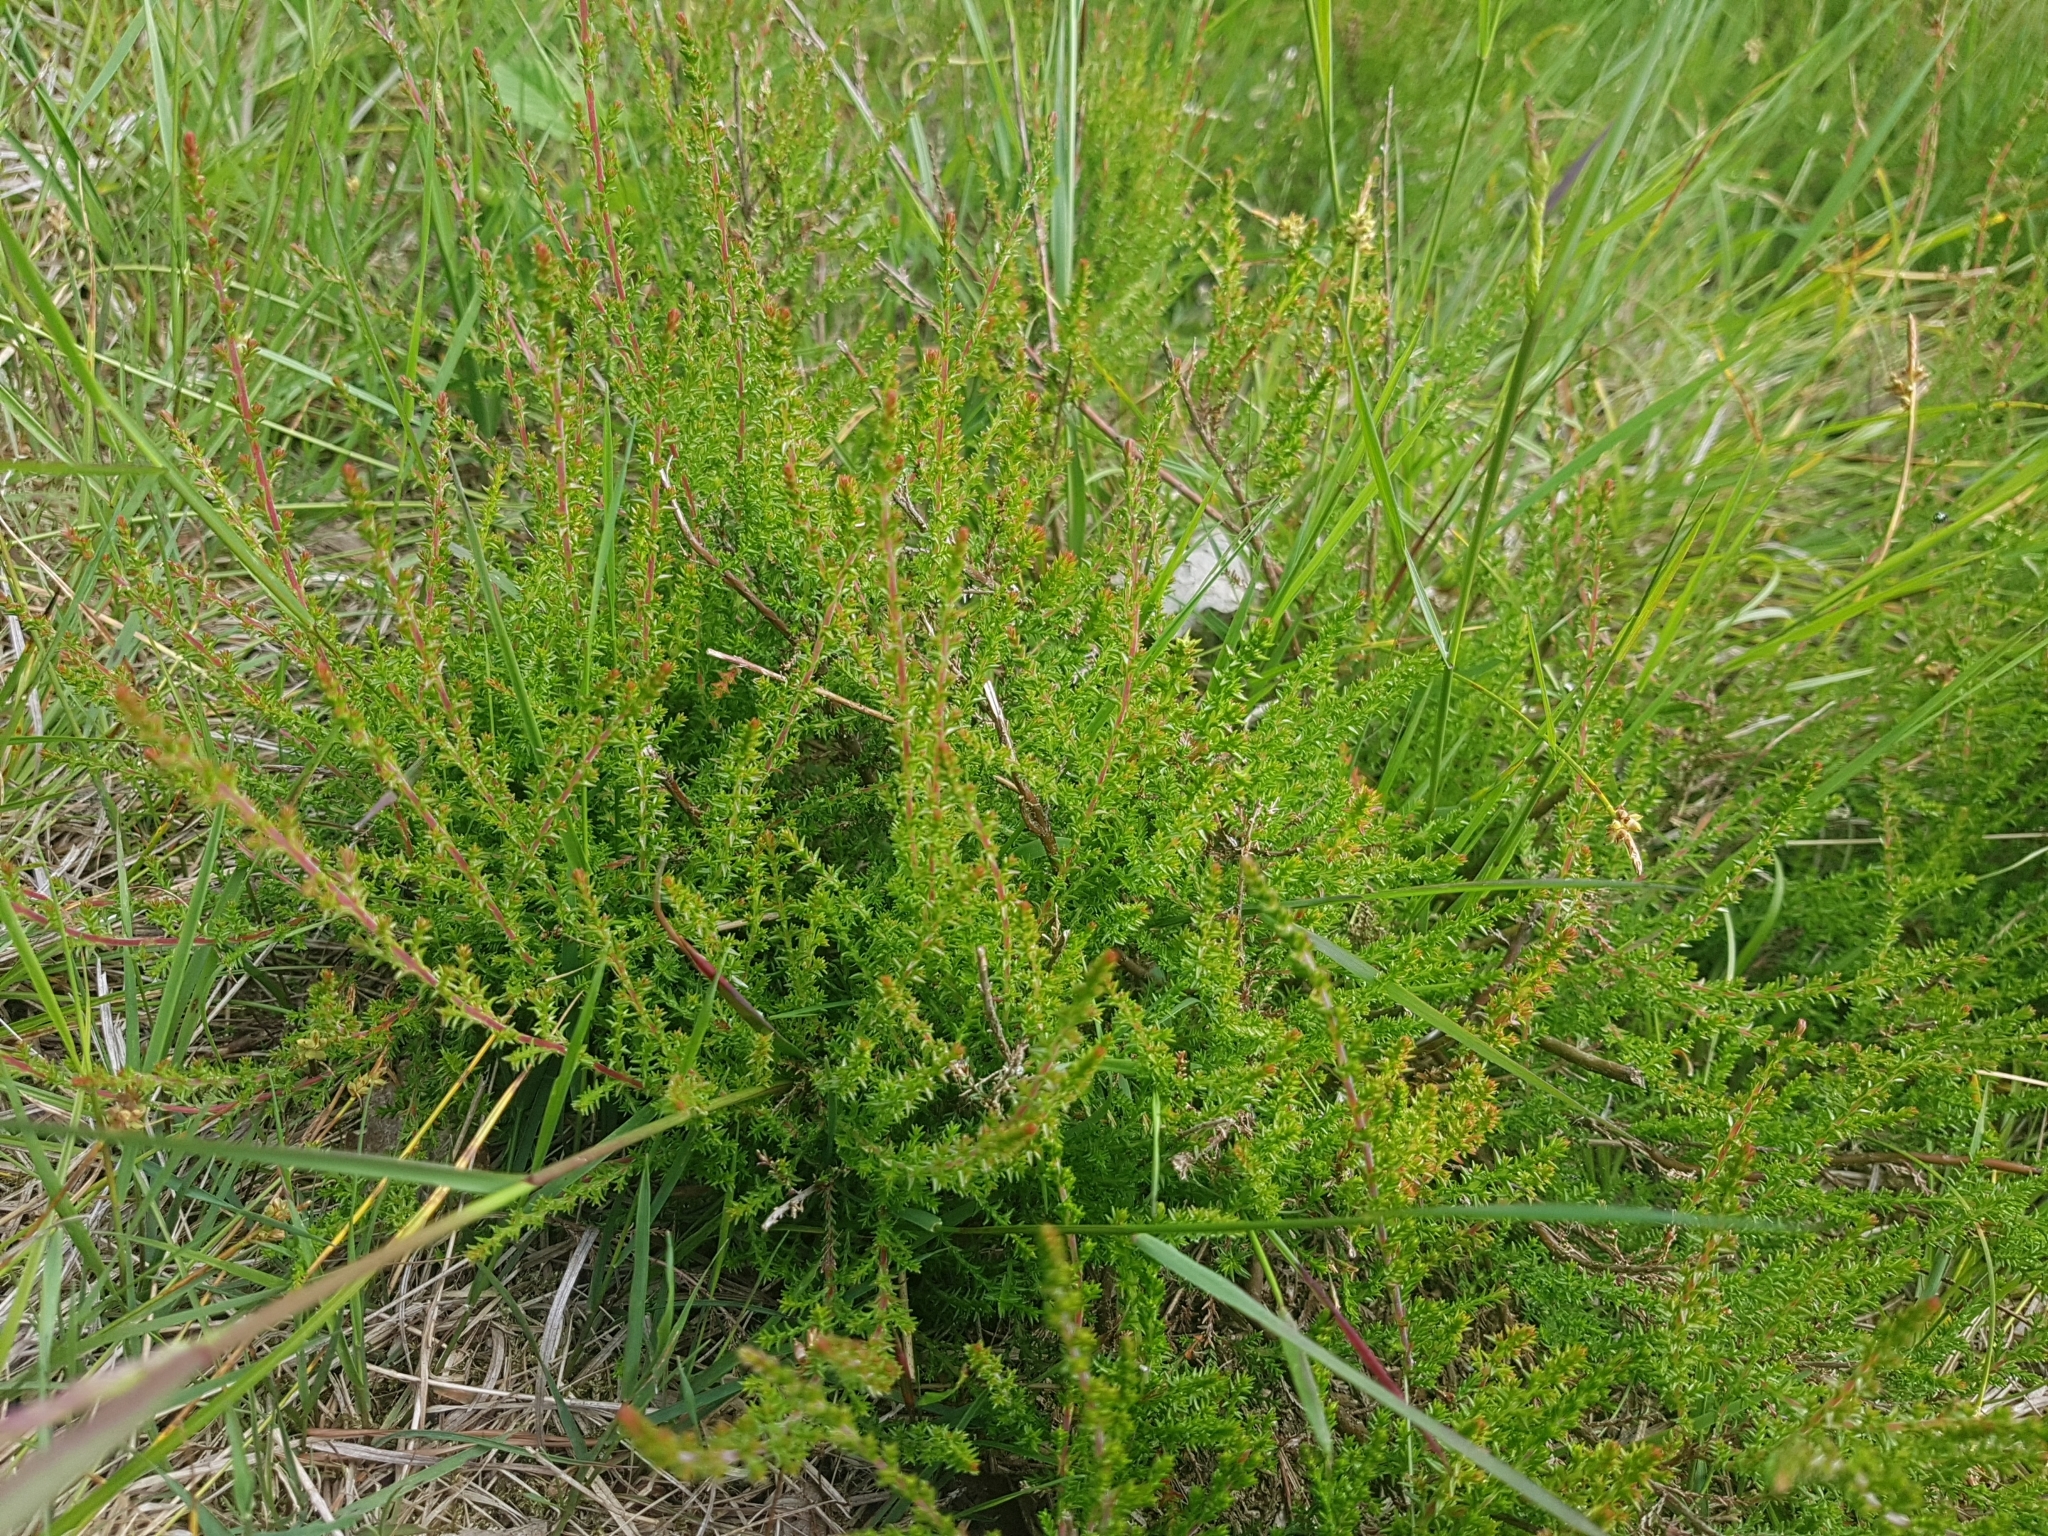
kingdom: Plantae
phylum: Tracheophyta
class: Magnoliopsida
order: Ericales
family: Ericaceae
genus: Calluna
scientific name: Calluna vulgaris
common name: Heather
